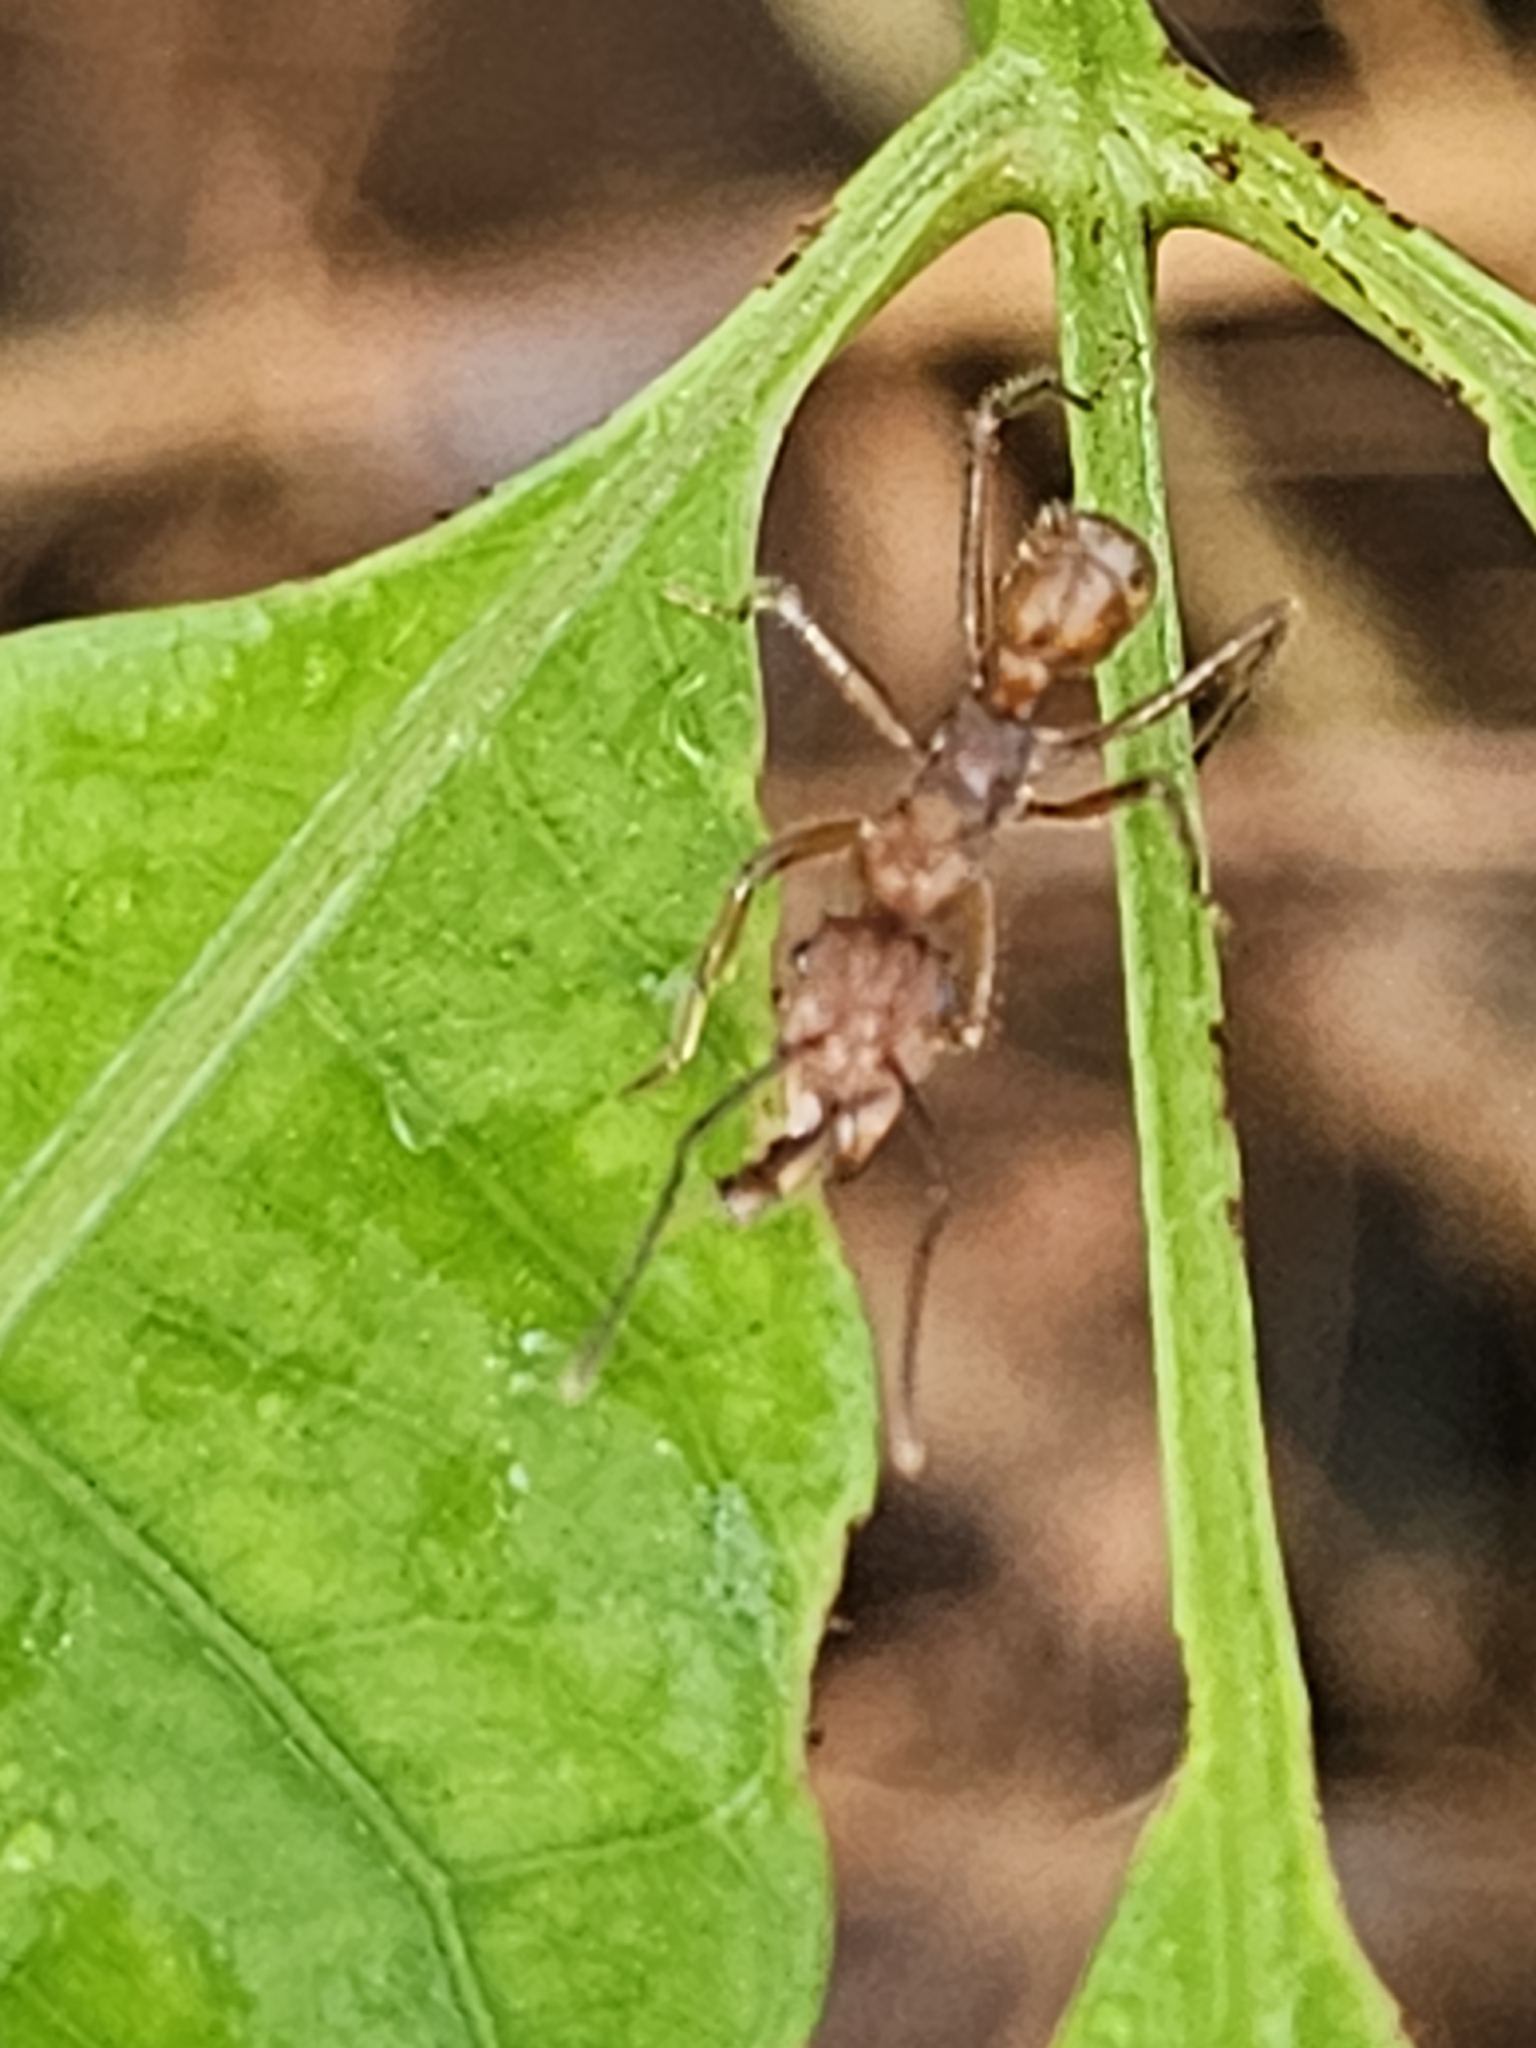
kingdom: Animalia
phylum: Arthropoda
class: Insecta
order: Hymenoptera
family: Formicidae
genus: Ectatomma
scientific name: Ectatomma tuberculatum
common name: Ant
